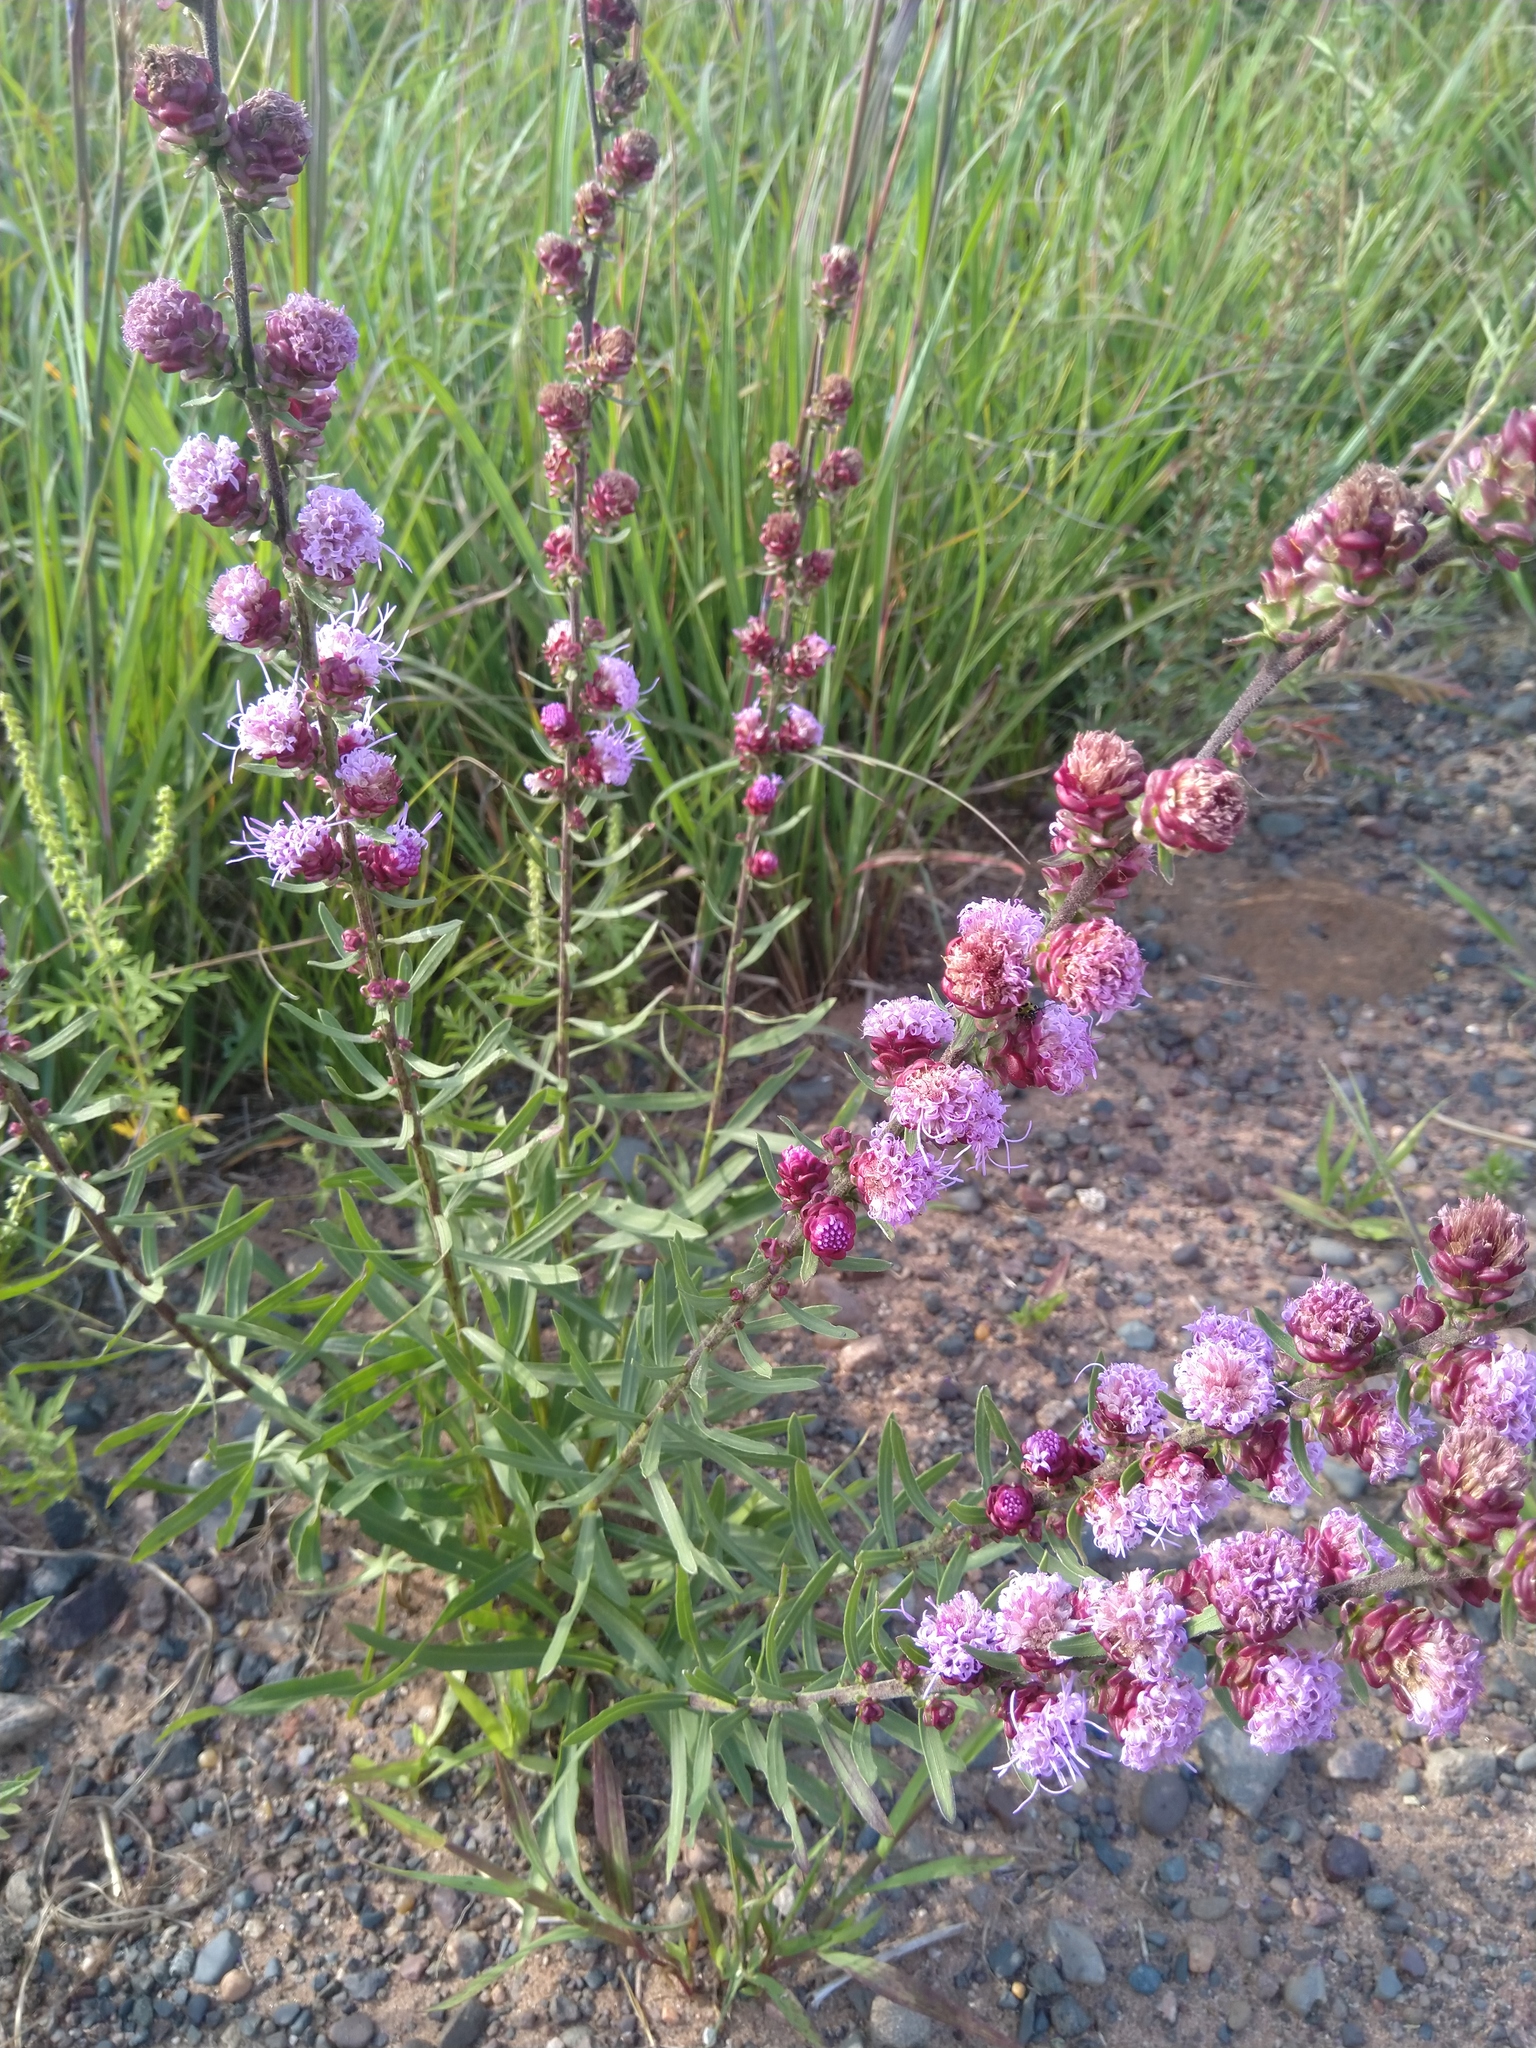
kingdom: Plantae
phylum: Tracheophyta
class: Magnoliopsida
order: Asterales
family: Asteraceae
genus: Liatris
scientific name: Liatris aspera
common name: Lacerate blazing-star
